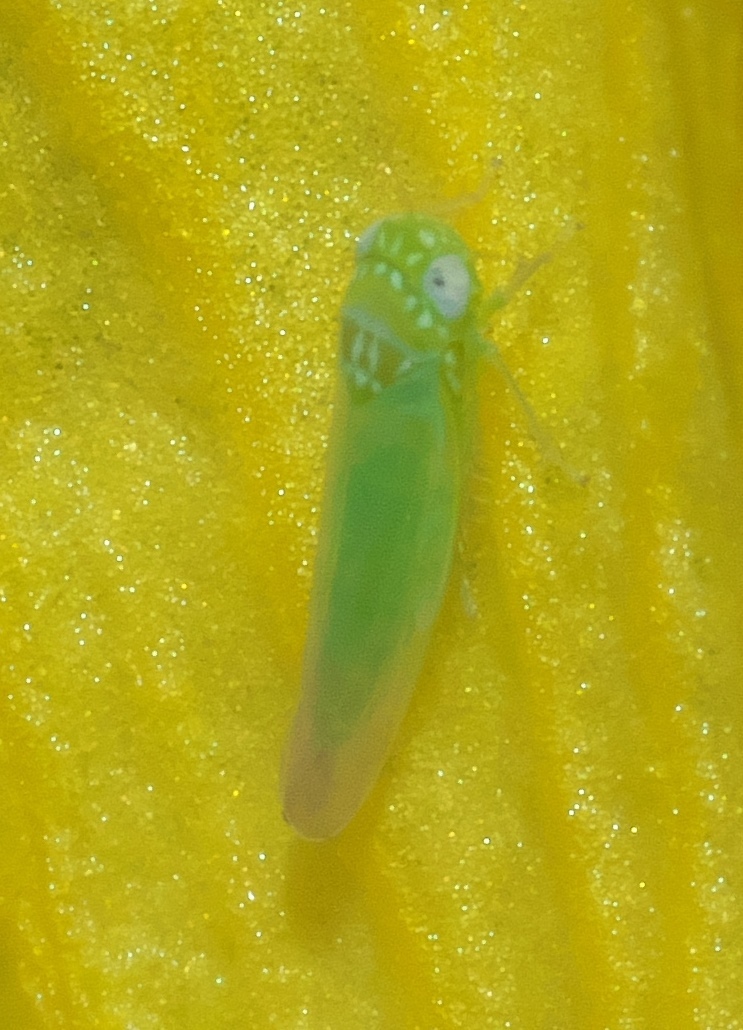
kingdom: Animalia
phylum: Arthropoda
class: Insecta
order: Hemiptera
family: Cicadellidae
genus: Empoasca
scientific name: Empoasca fabae
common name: Potato leafhopper
